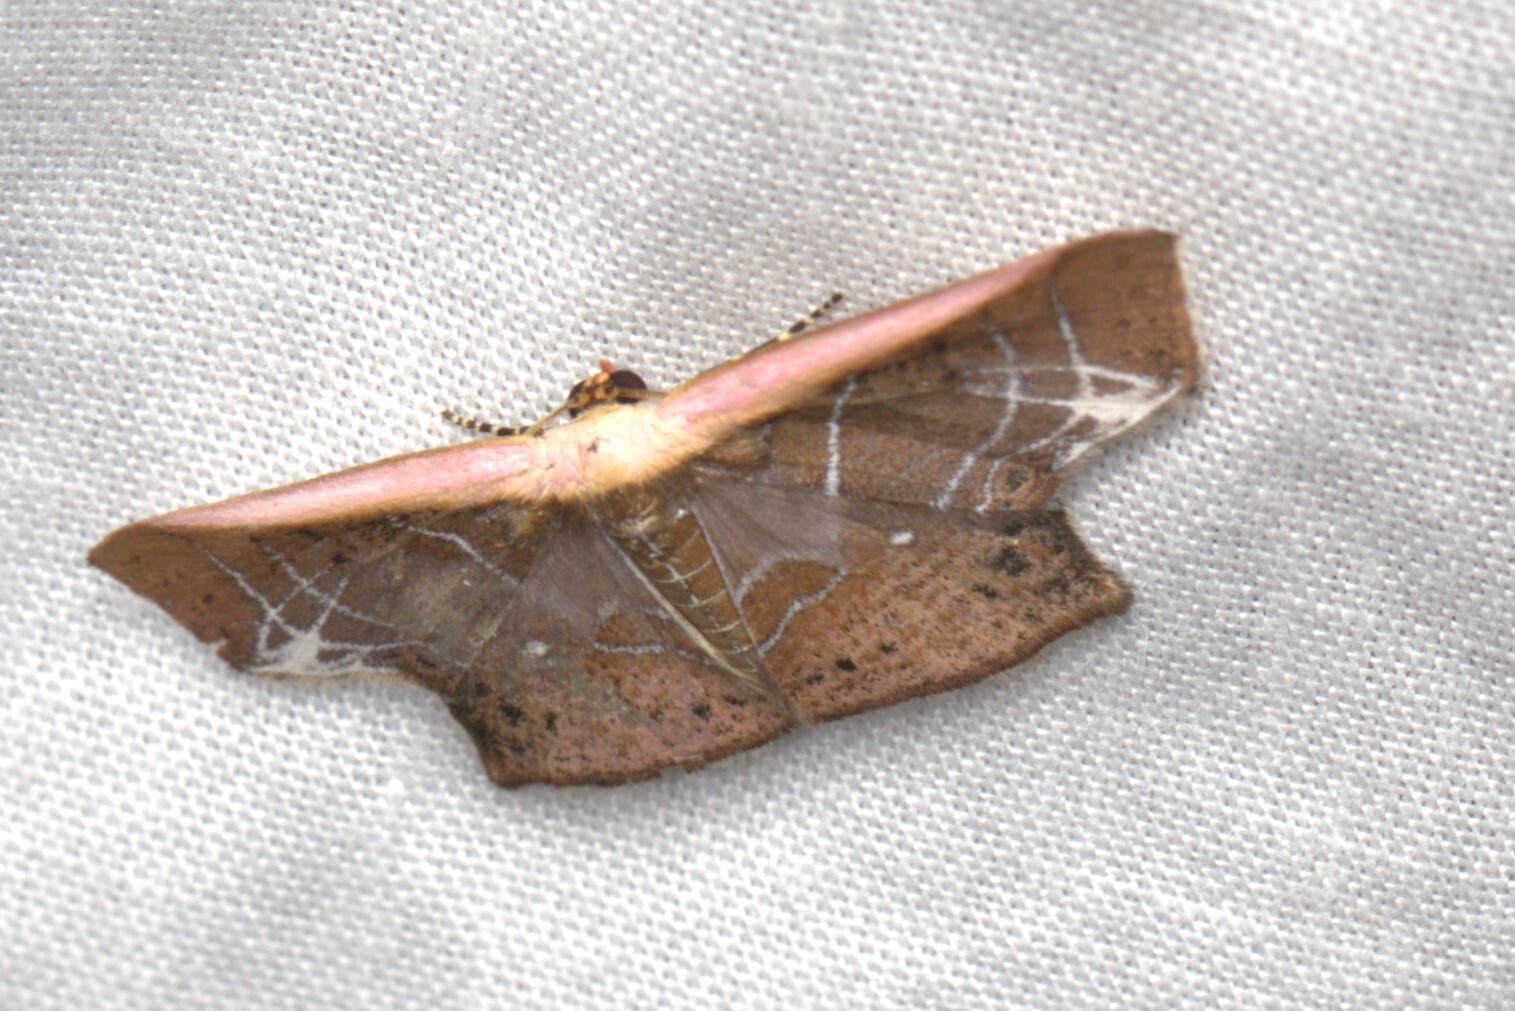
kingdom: Animalia
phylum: Arthropoda
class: Insecta
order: Lepidoptera
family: Geometridae
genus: Tessarotis
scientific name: Tessarotis rubrata
